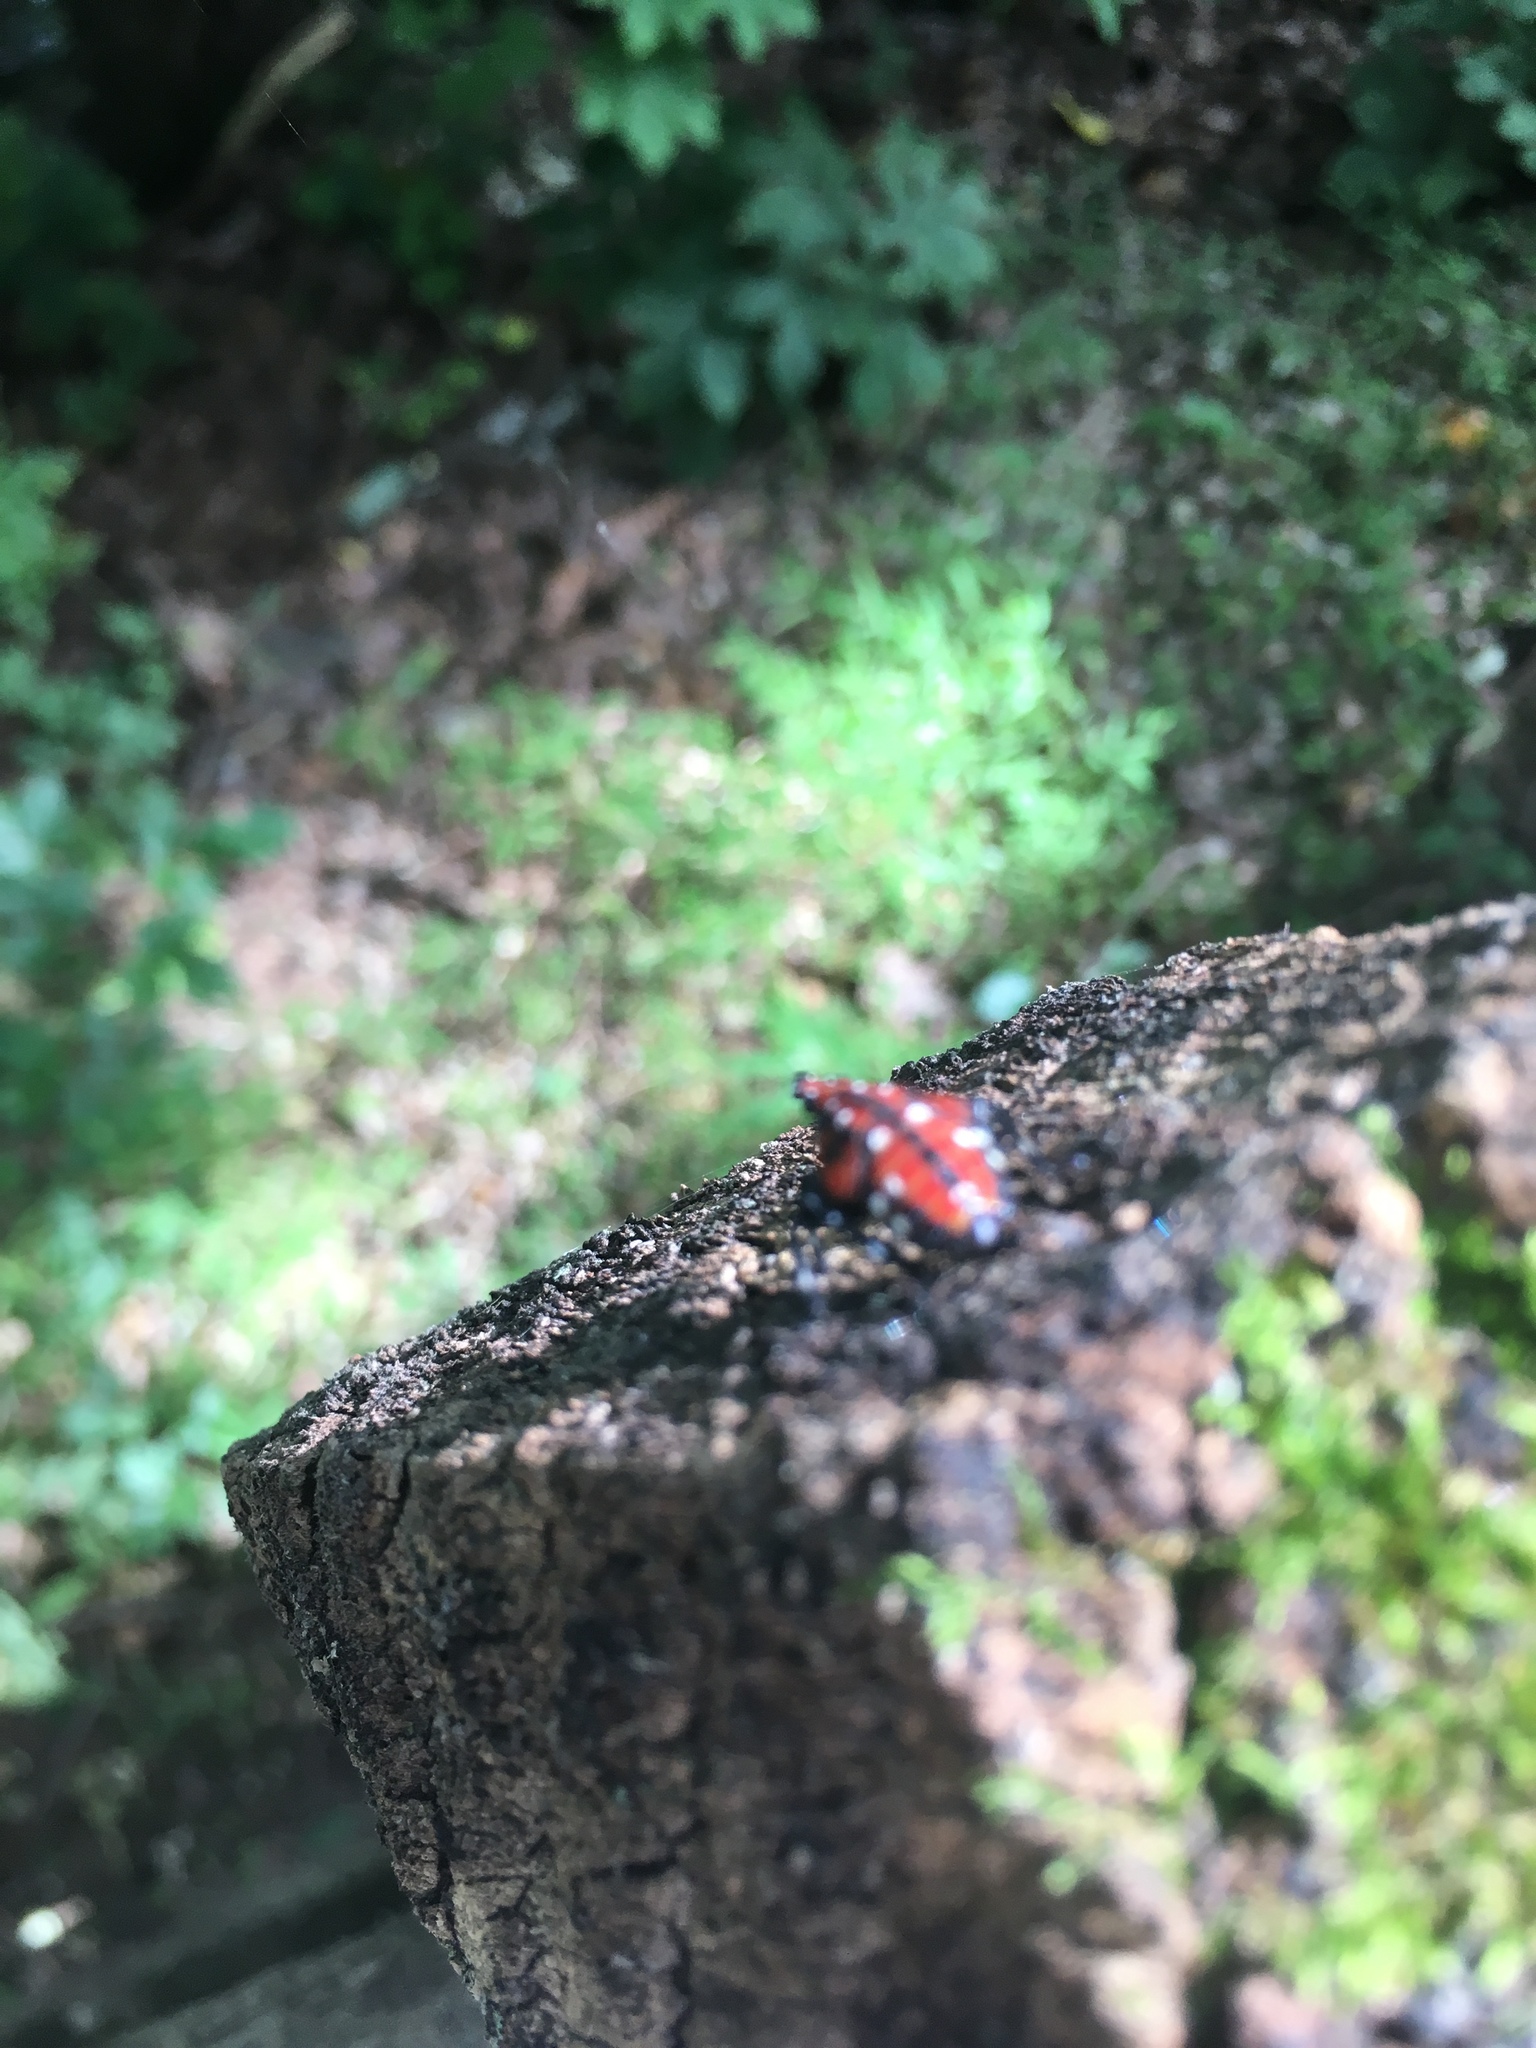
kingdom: Animalia
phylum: Arthropoda
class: Insecta
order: Hemiptera
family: Fulgoridae
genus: Lycorma
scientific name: Lycorma delicatula
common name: Spotted lanternfly
